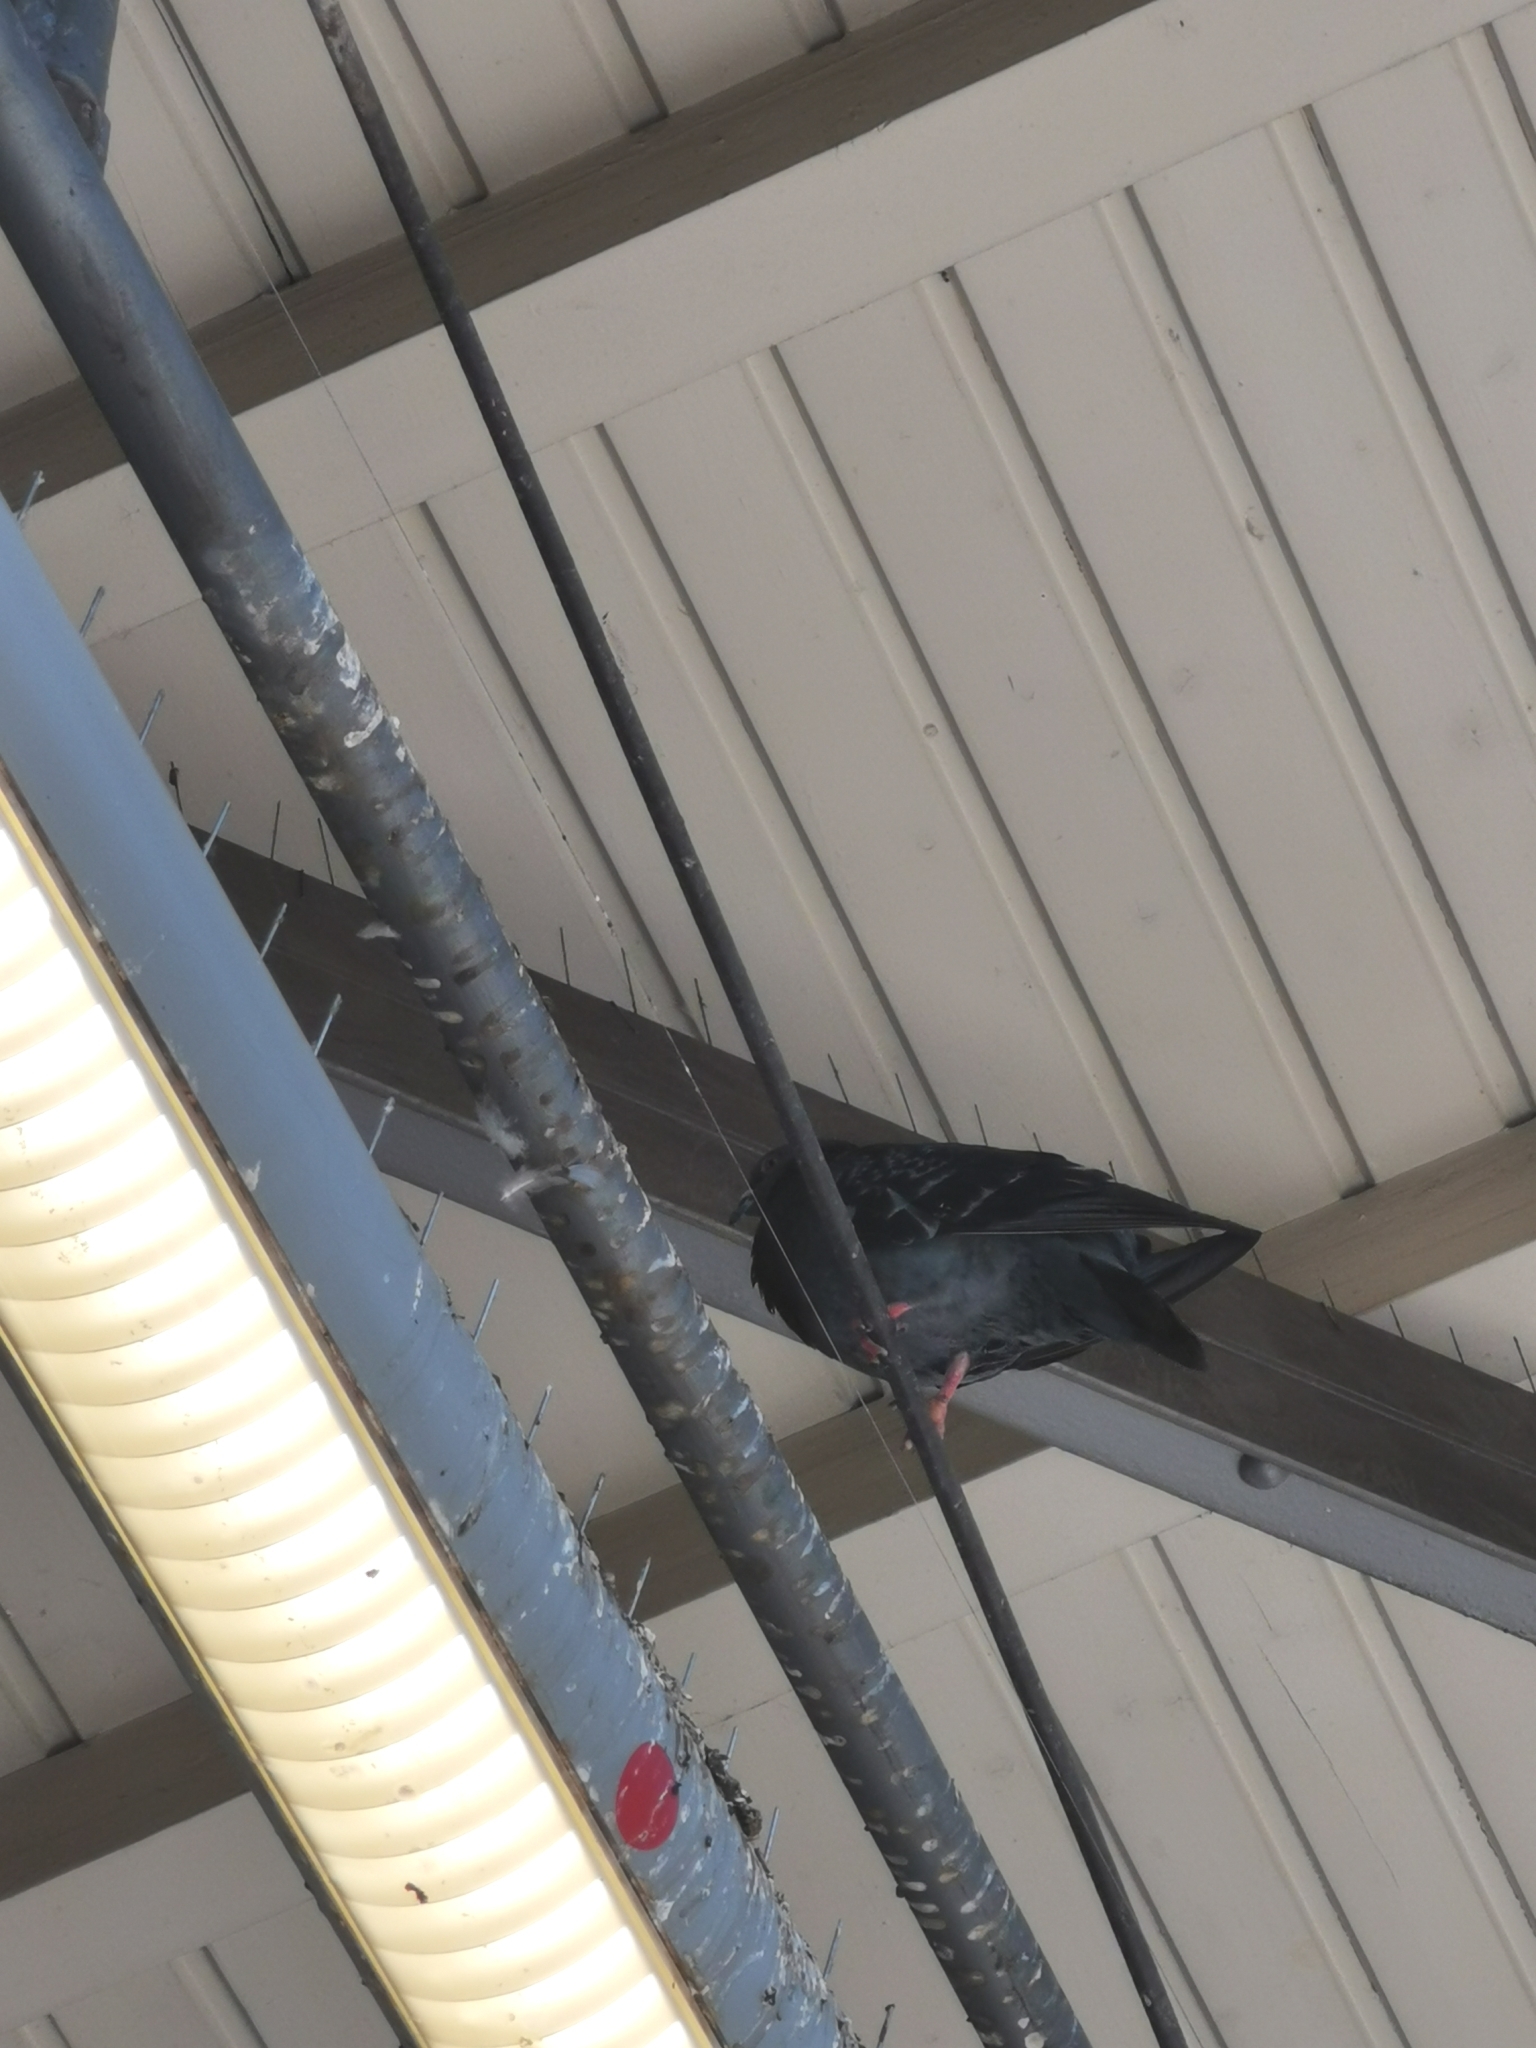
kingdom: Animalia
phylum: Chordata
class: Aves
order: Columbiformes
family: Columbidae
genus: Columba
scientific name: Columba livia
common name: Rock pigeon
